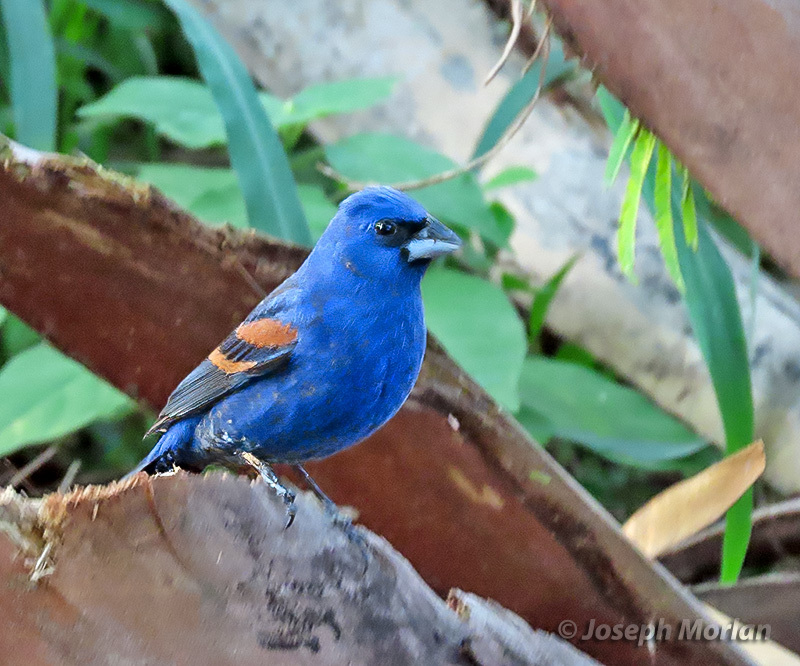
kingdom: Animalia
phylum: Chordata
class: Aves
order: Passeriformes
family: Cardinalidae
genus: Passerina
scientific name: Passerina caerulea
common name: Blue grosbeak
